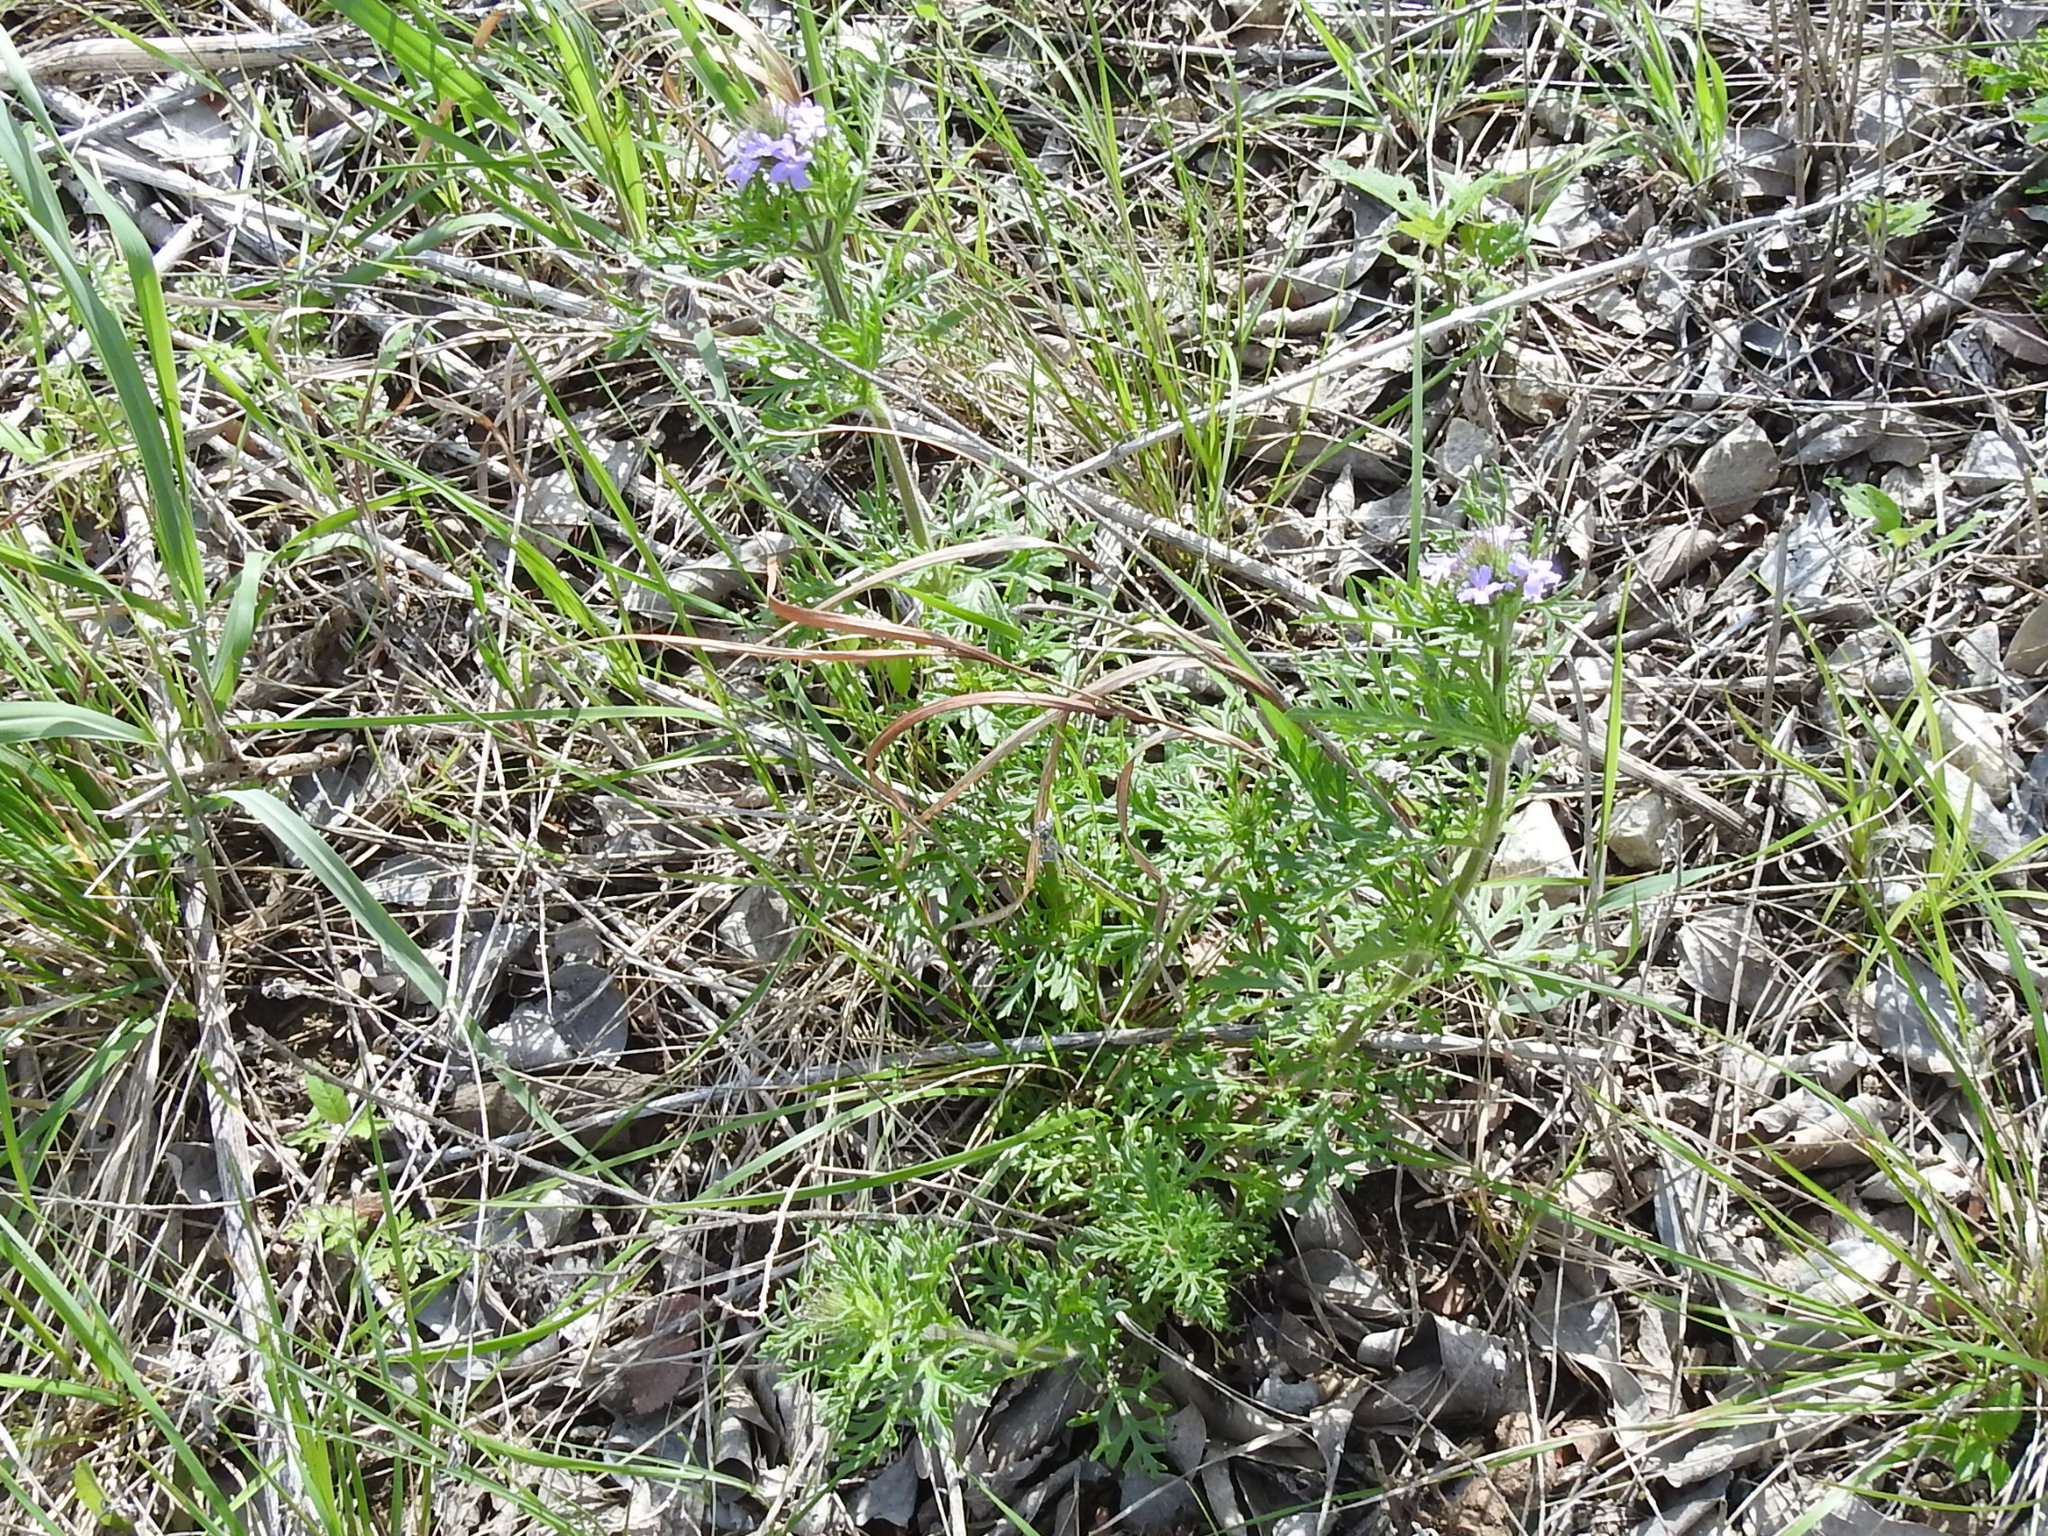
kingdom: Plantae
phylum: Tracheophyta
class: Magnoliopsida
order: Lamiales
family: Verbenaceae
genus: Verbena
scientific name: Verbena bipinnatifida
